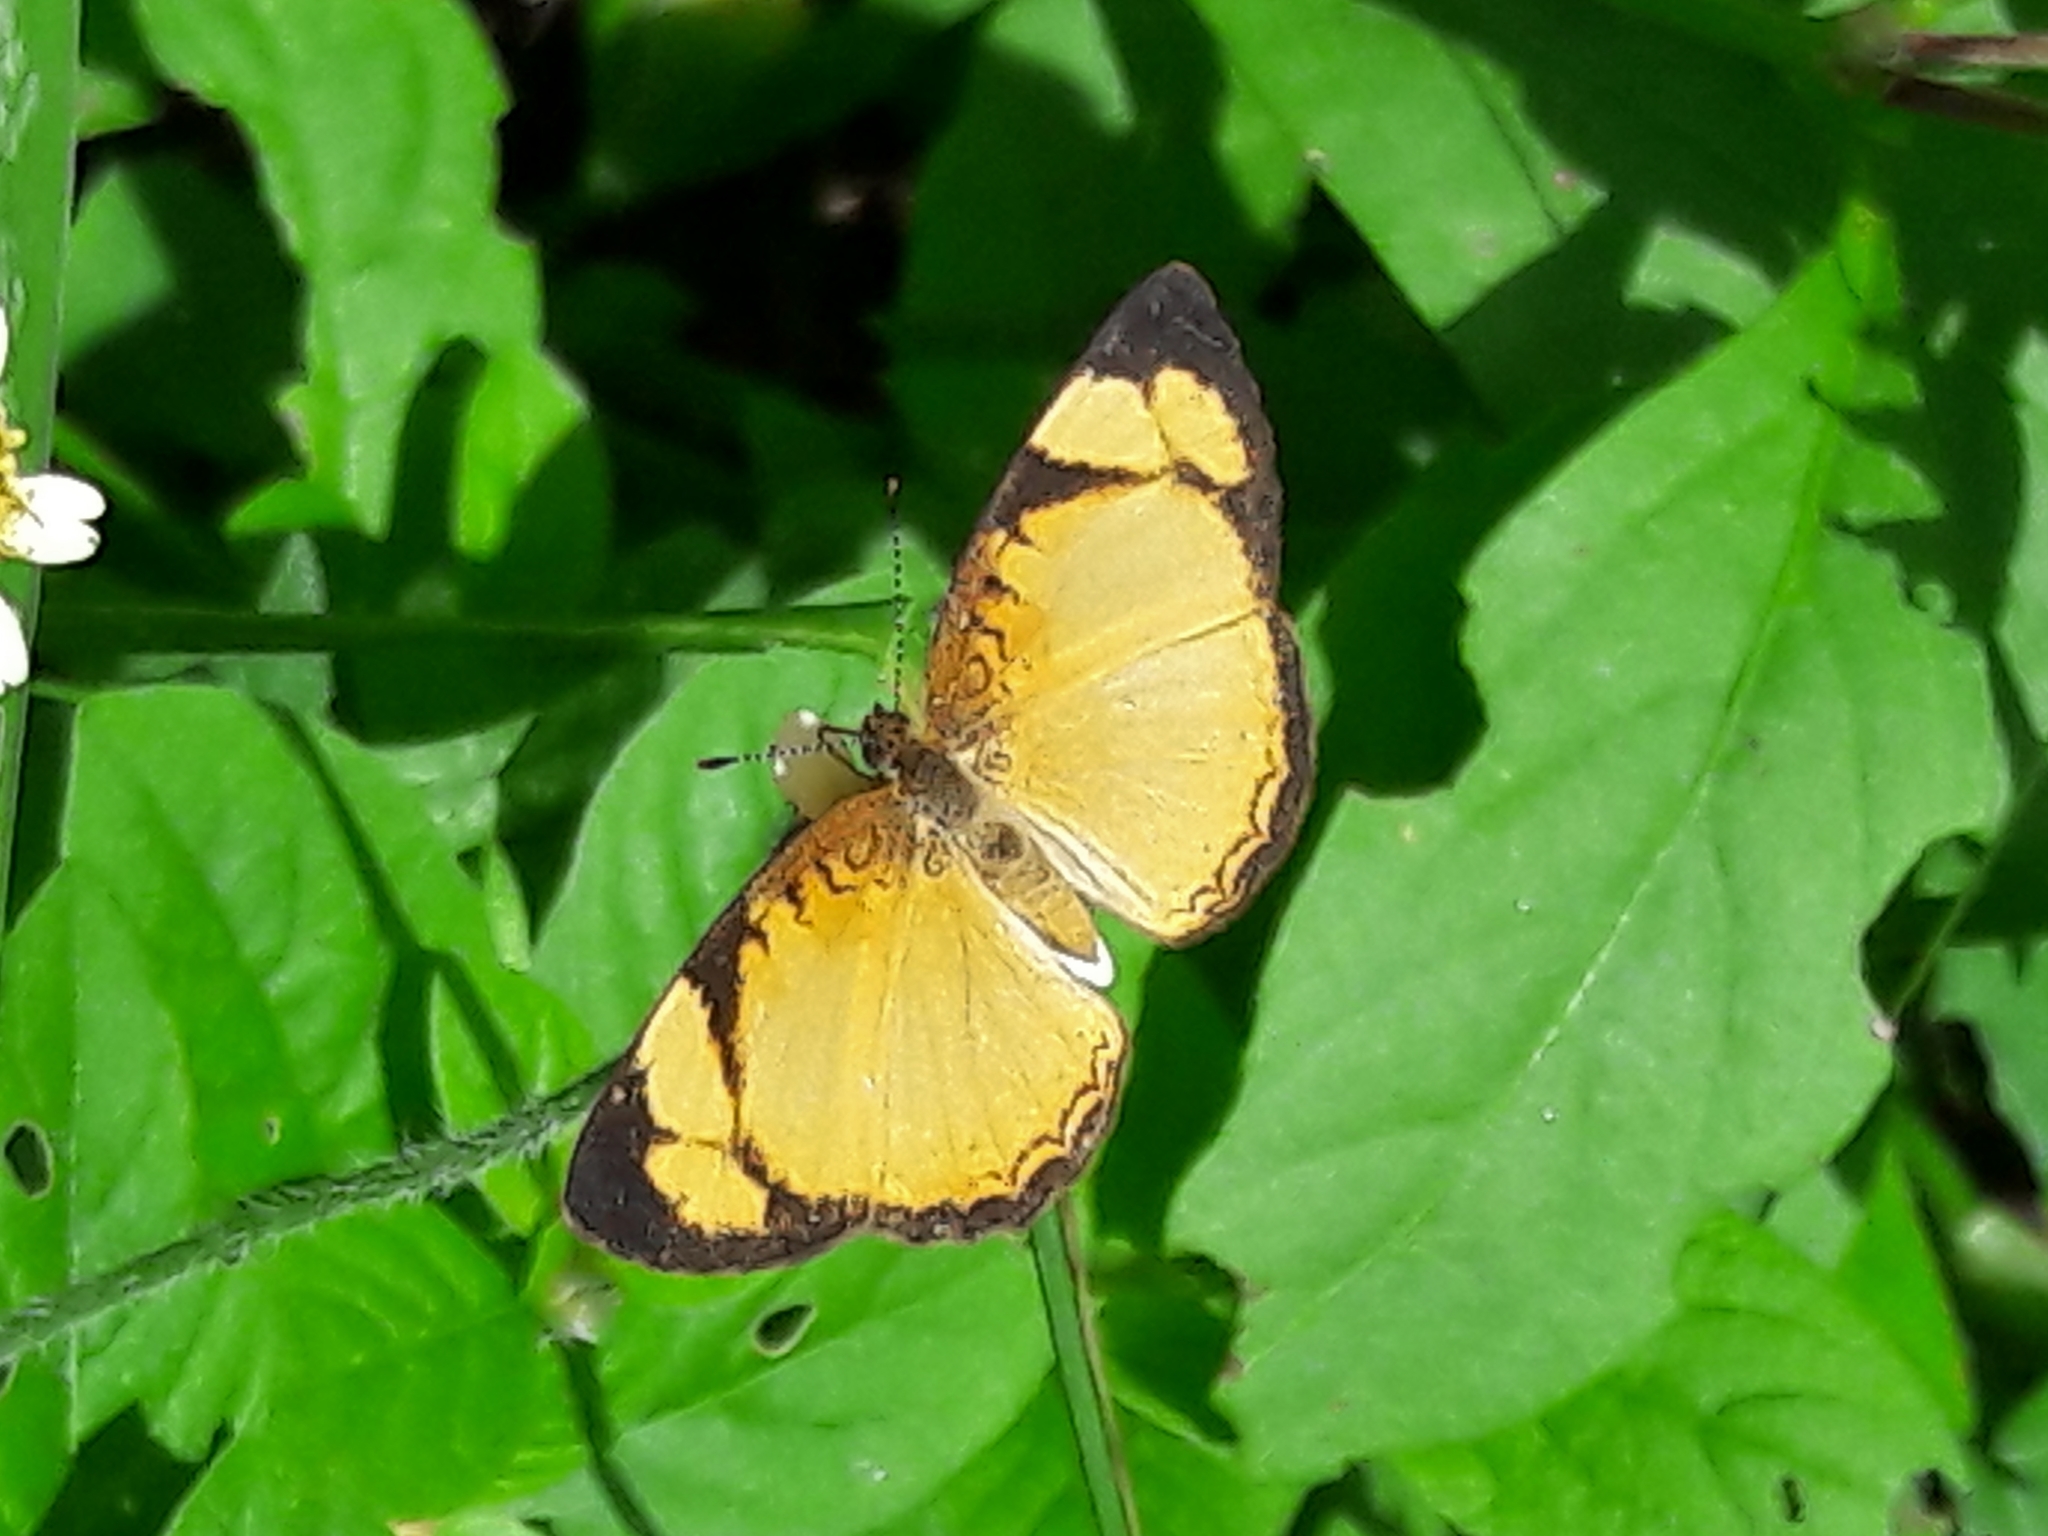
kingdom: Animalia
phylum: Arthropoda
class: Insecta
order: Lepidoptera
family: Nymphalidae
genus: Tegosa
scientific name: Tegosa claudina
